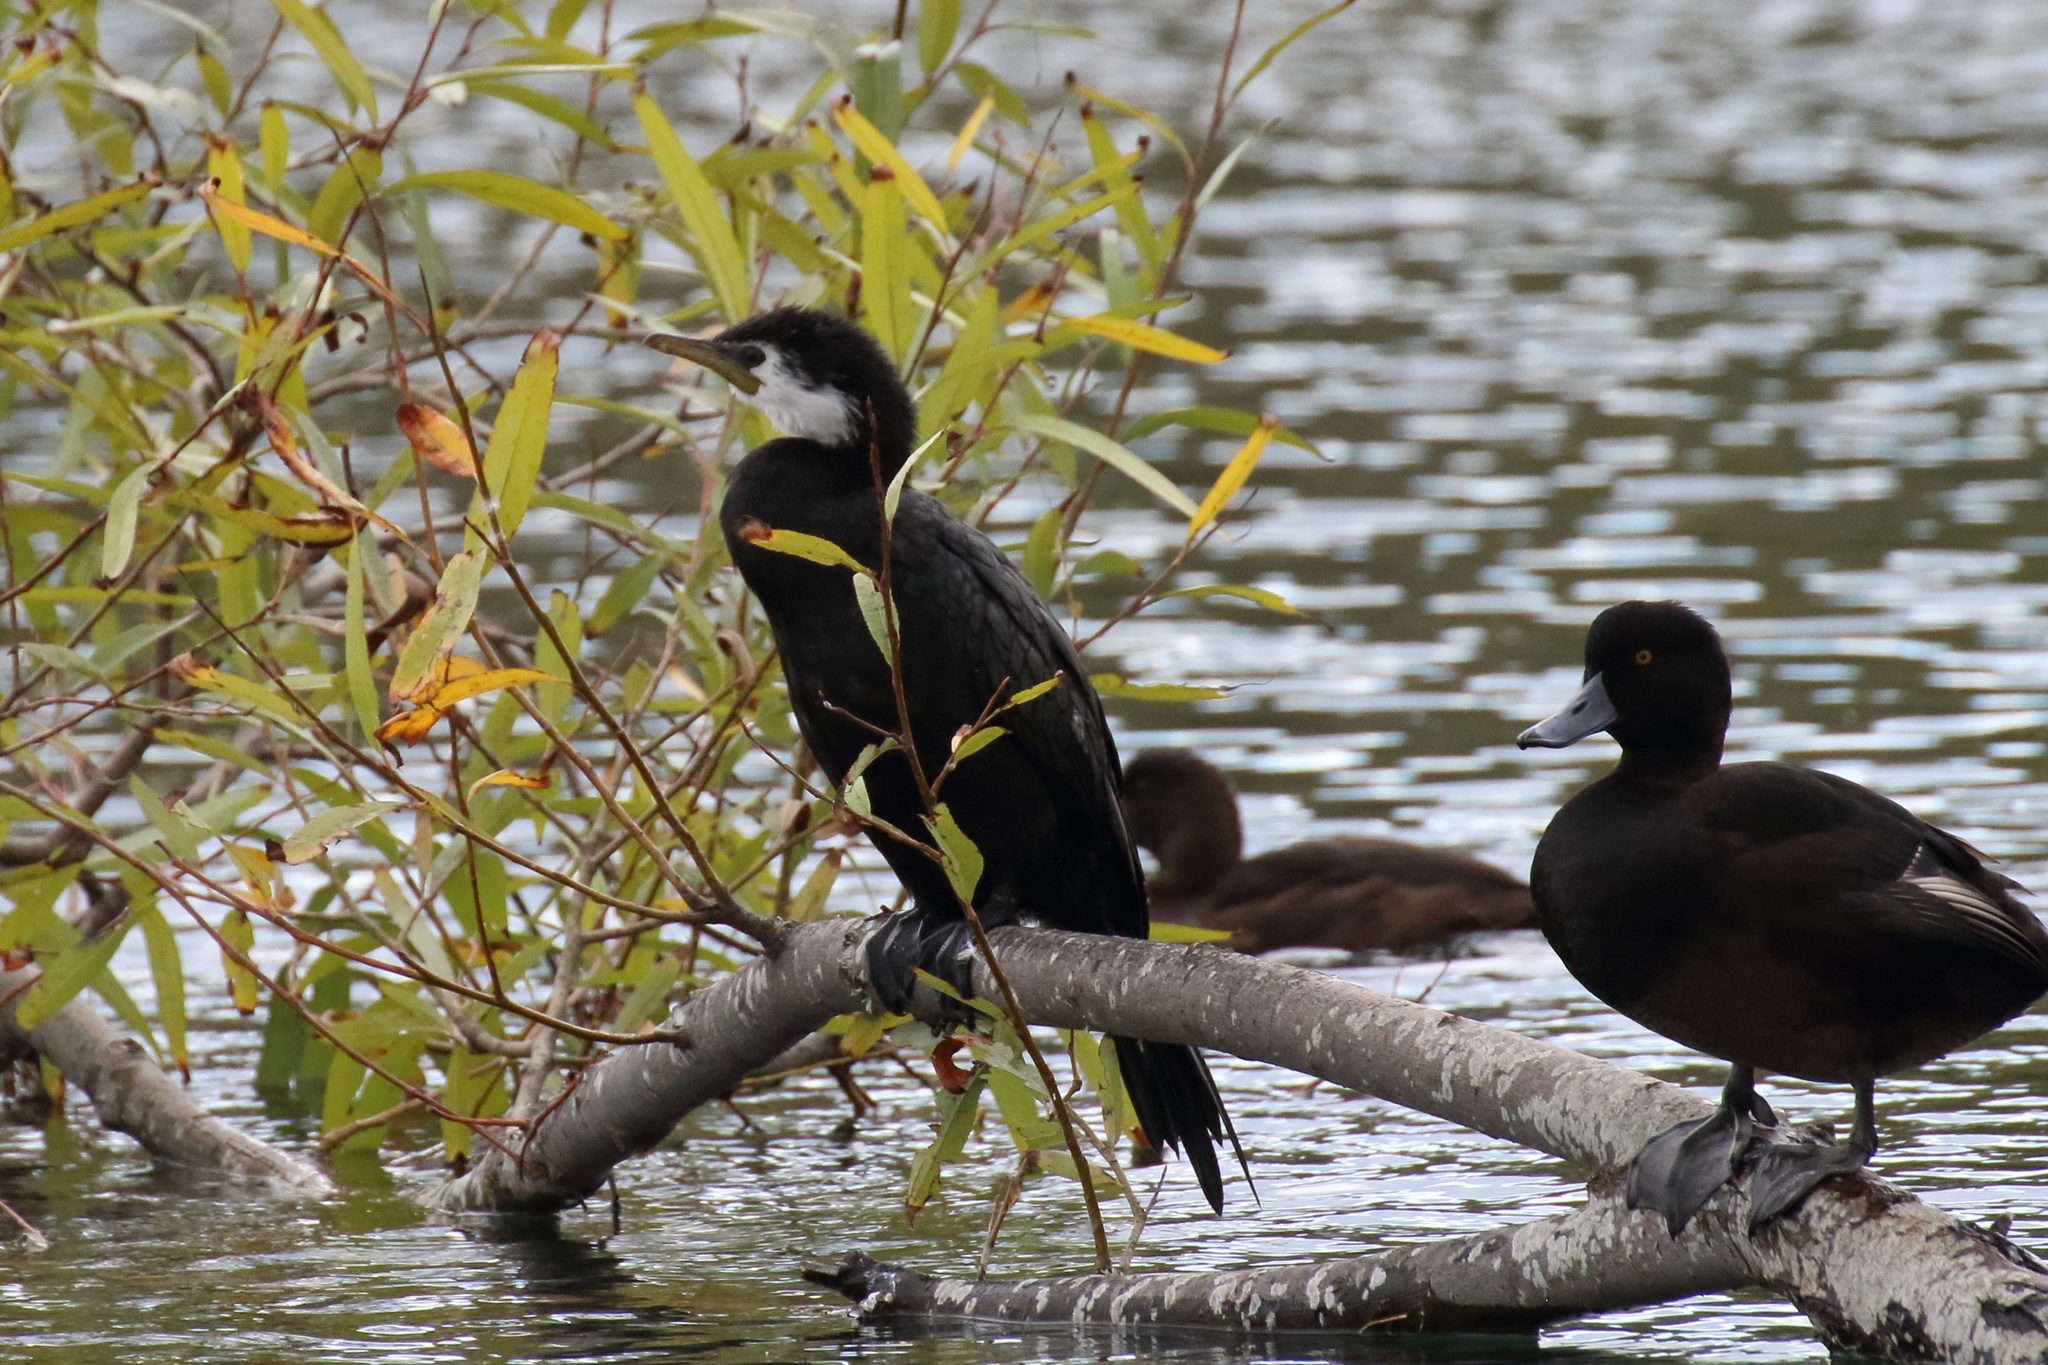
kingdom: Animalia
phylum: Chordata
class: Aves
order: Suliformes
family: Phalacrocoracidae
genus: Microcarbo
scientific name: Microcarbo melanoleucos
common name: Little pied cormorant
